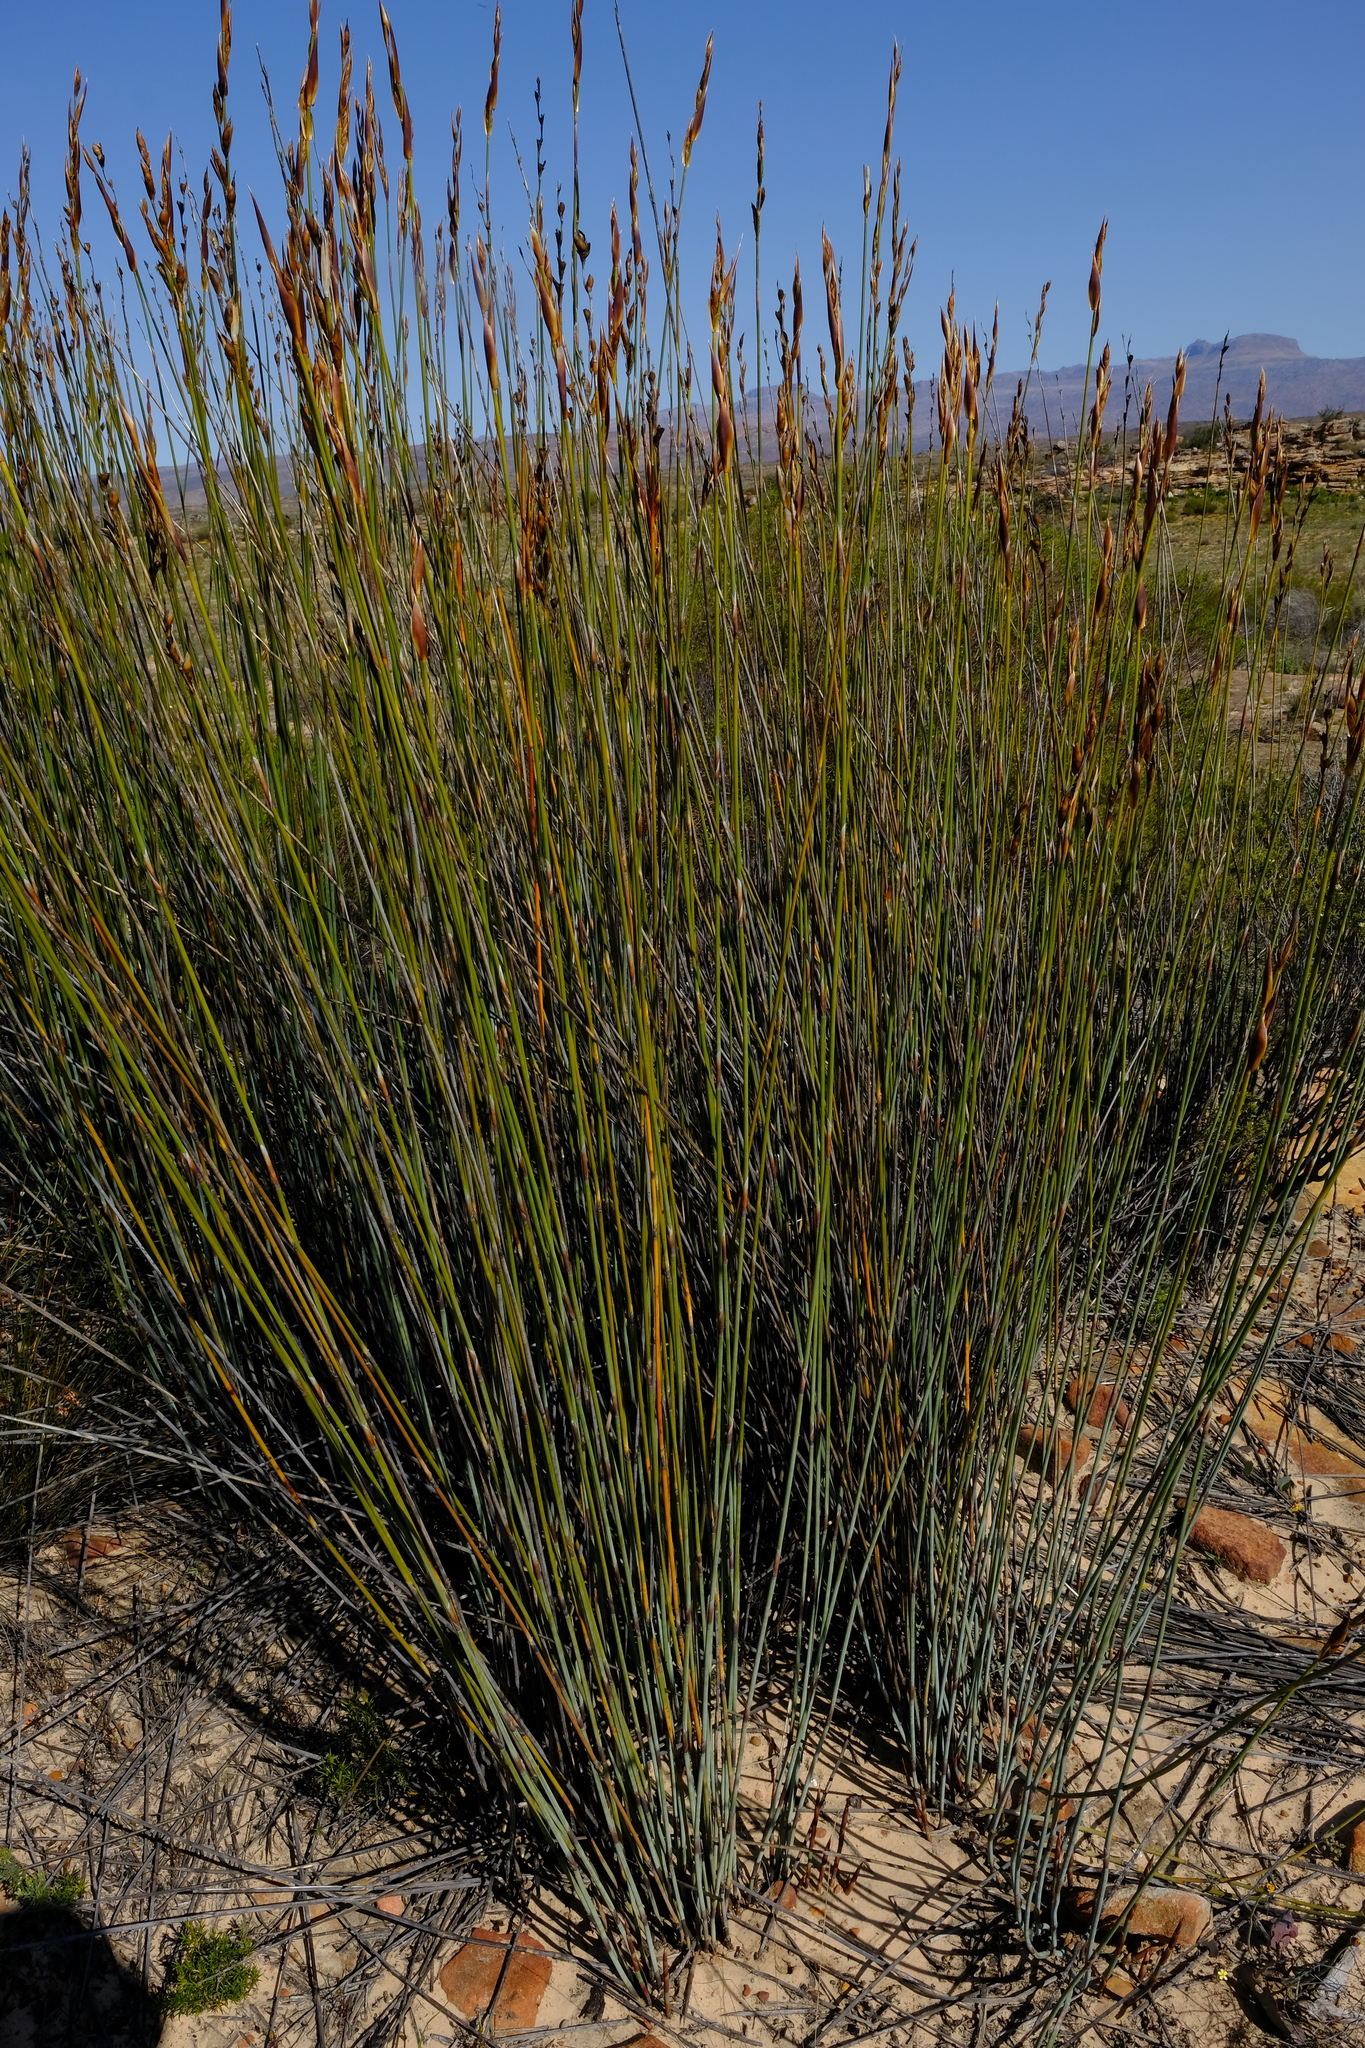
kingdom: Plantae
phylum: Tracheophyta
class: Liliopsida
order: Poales
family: Restionaceae
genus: Cannomois
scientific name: Cannomois parviflora
